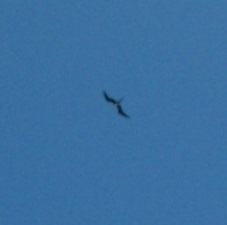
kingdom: Animalia
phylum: Chordata
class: Aves
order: Suliformes
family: Fregatidae
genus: Fregata
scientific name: Fregata magnificens
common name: Magnificent frigatebird
